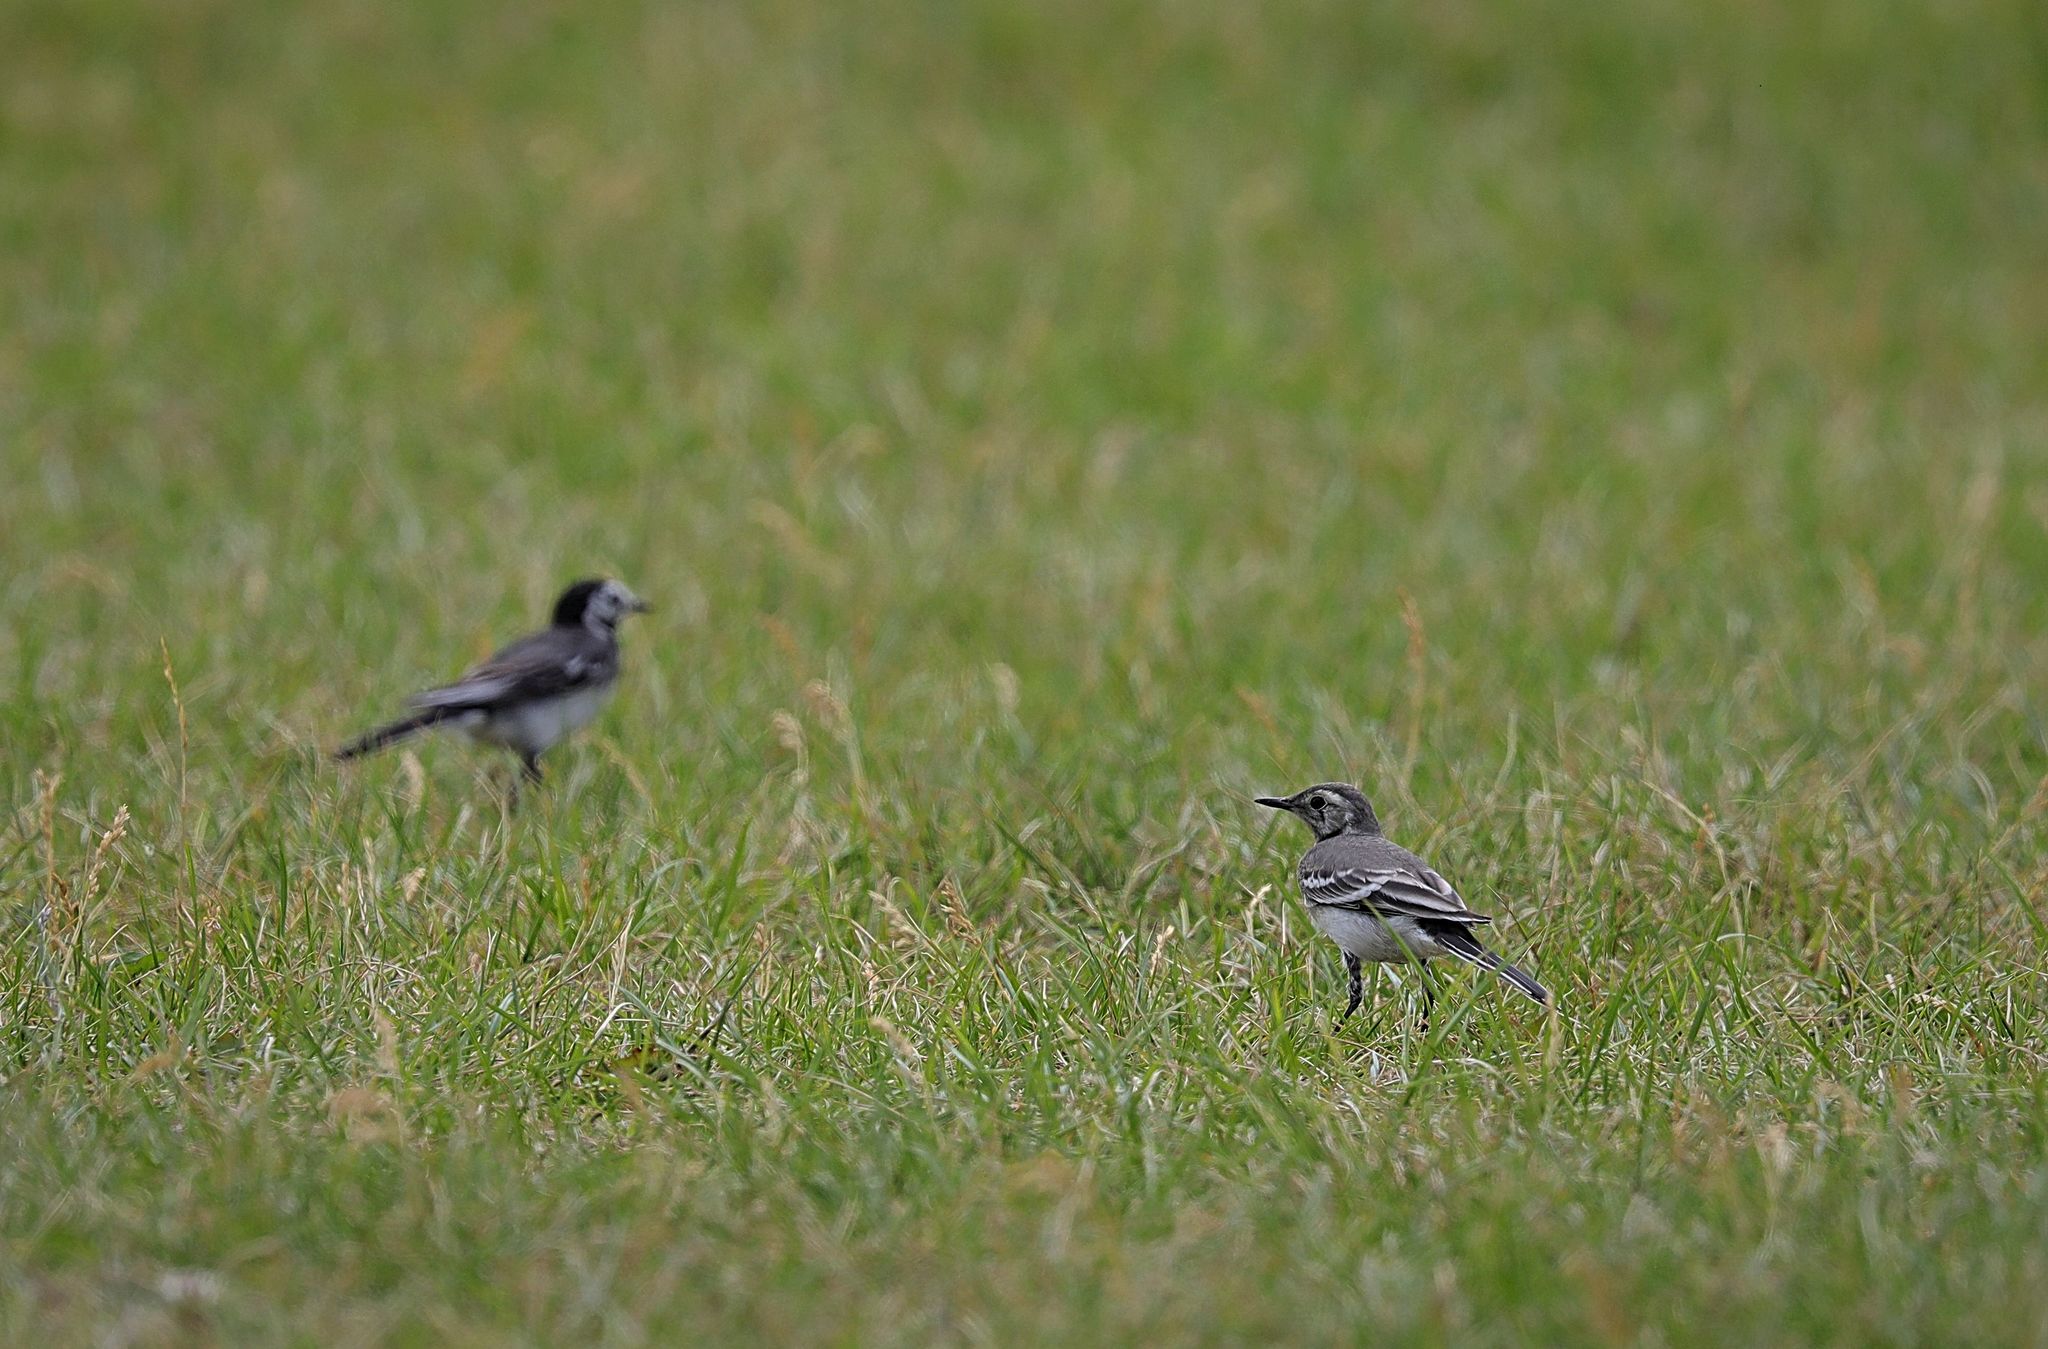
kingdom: Animalia
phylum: Chordata
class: Aves
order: Passeriformes
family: Motacillidae
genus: Motacilla
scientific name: Motacilla alba
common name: White wagtail
